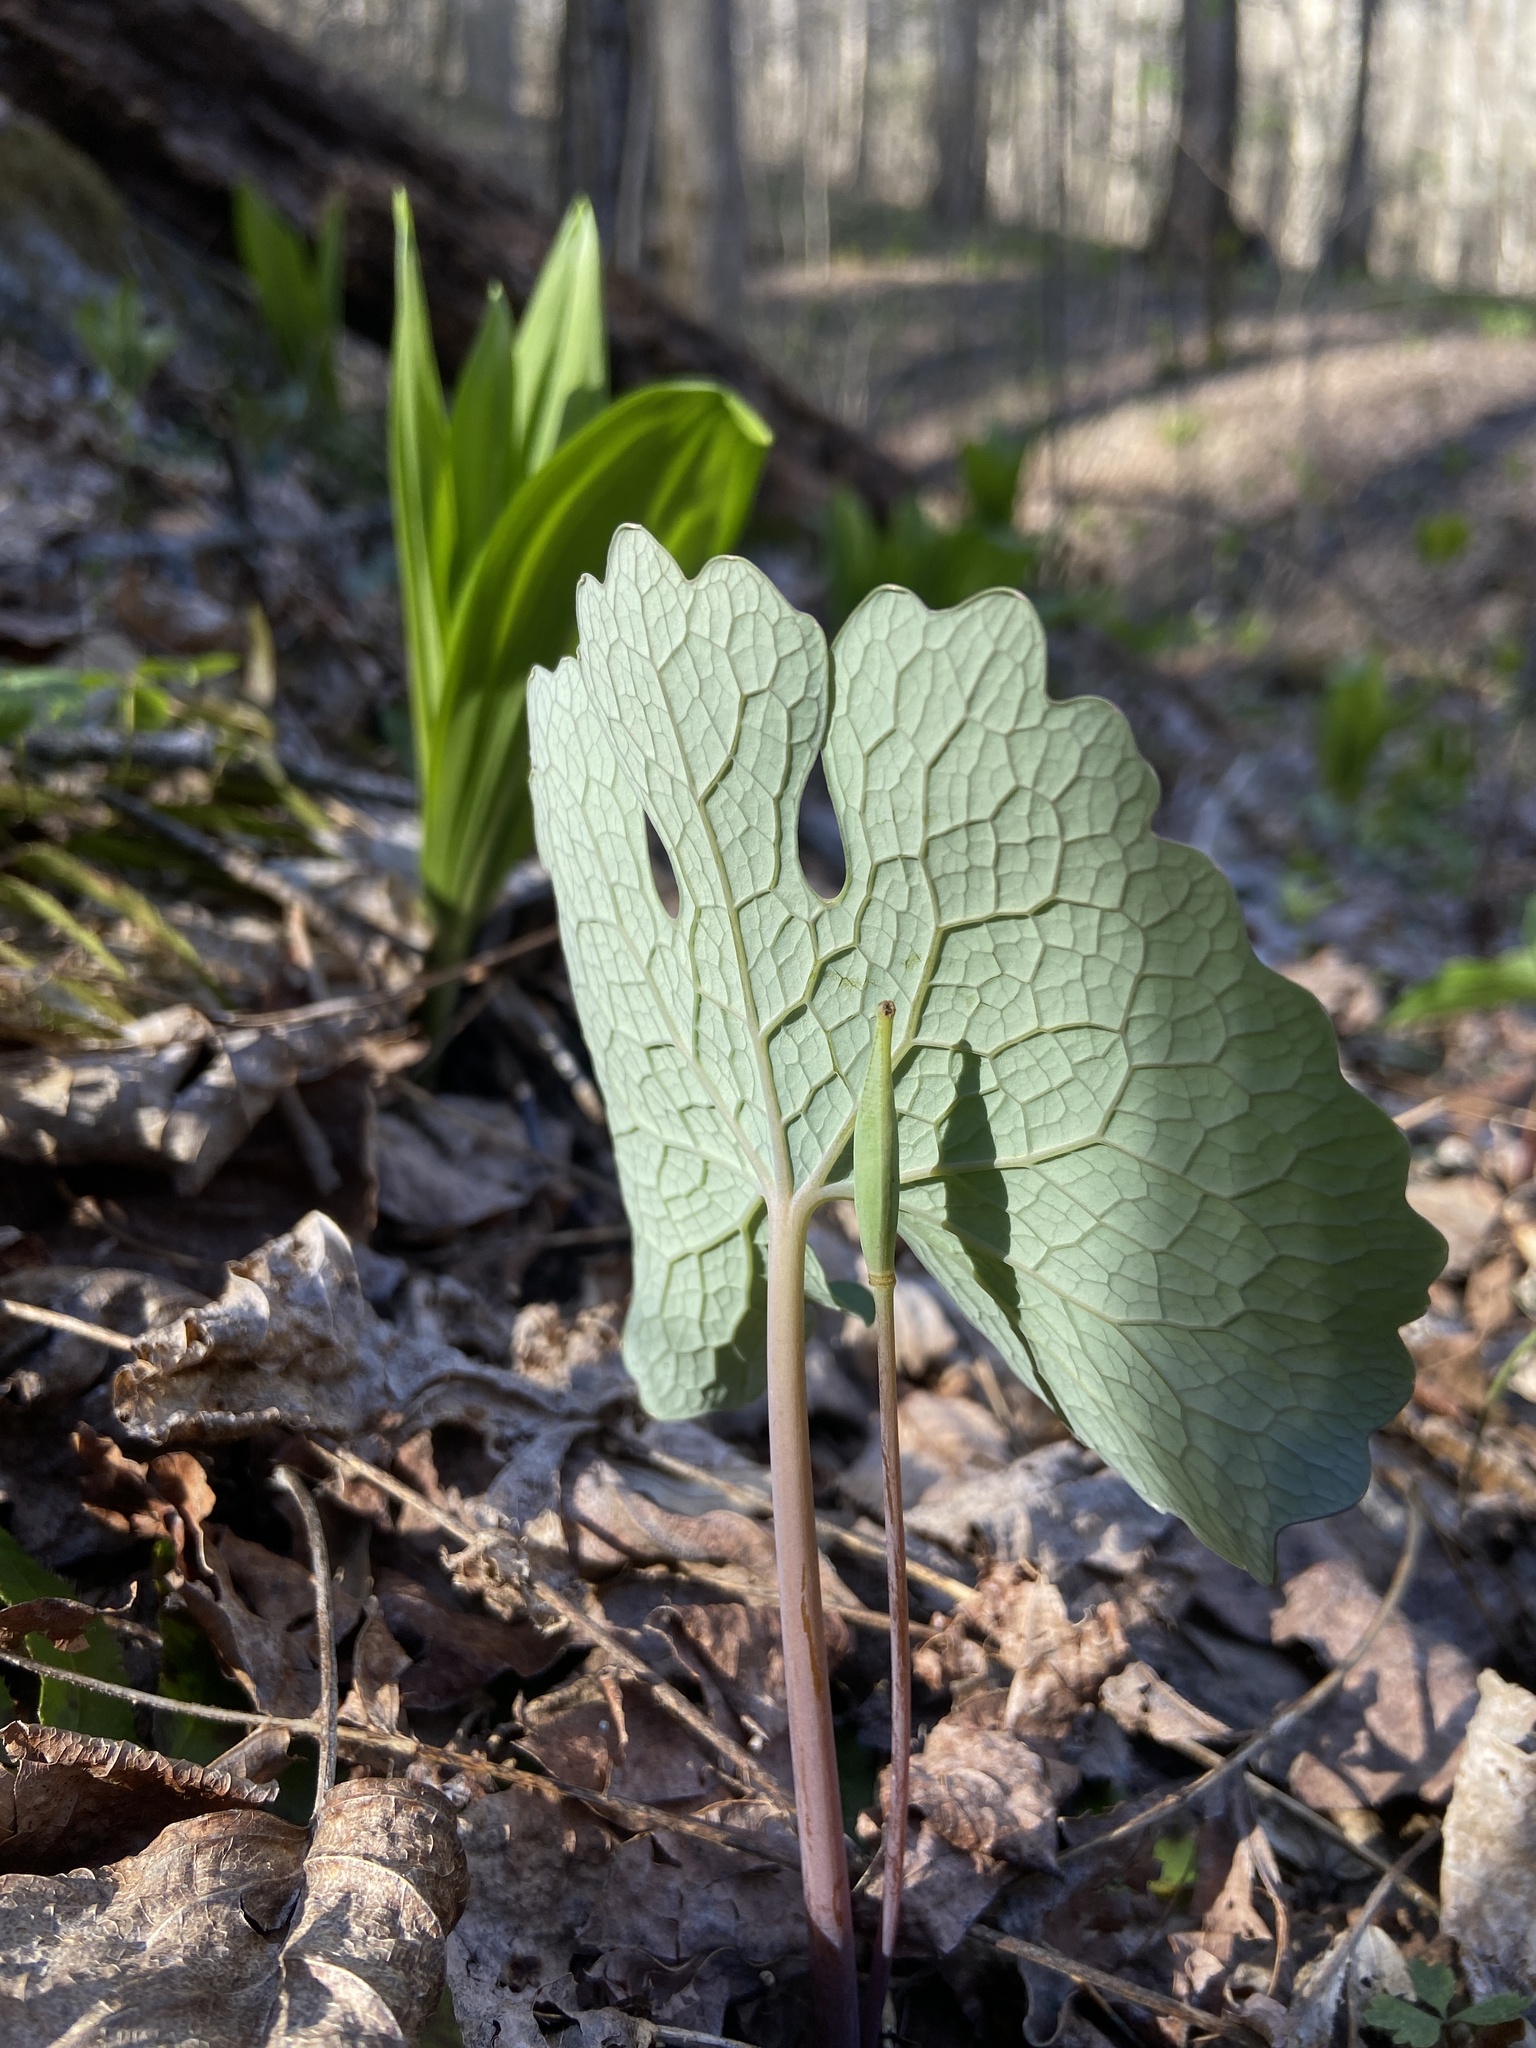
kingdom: Plantae
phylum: Tracheophyta
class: Magnoliopsida
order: Ranunculales
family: Papaveraceae
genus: Sanguinaria
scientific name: Sanguinaria canadensis
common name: Bloodroot
